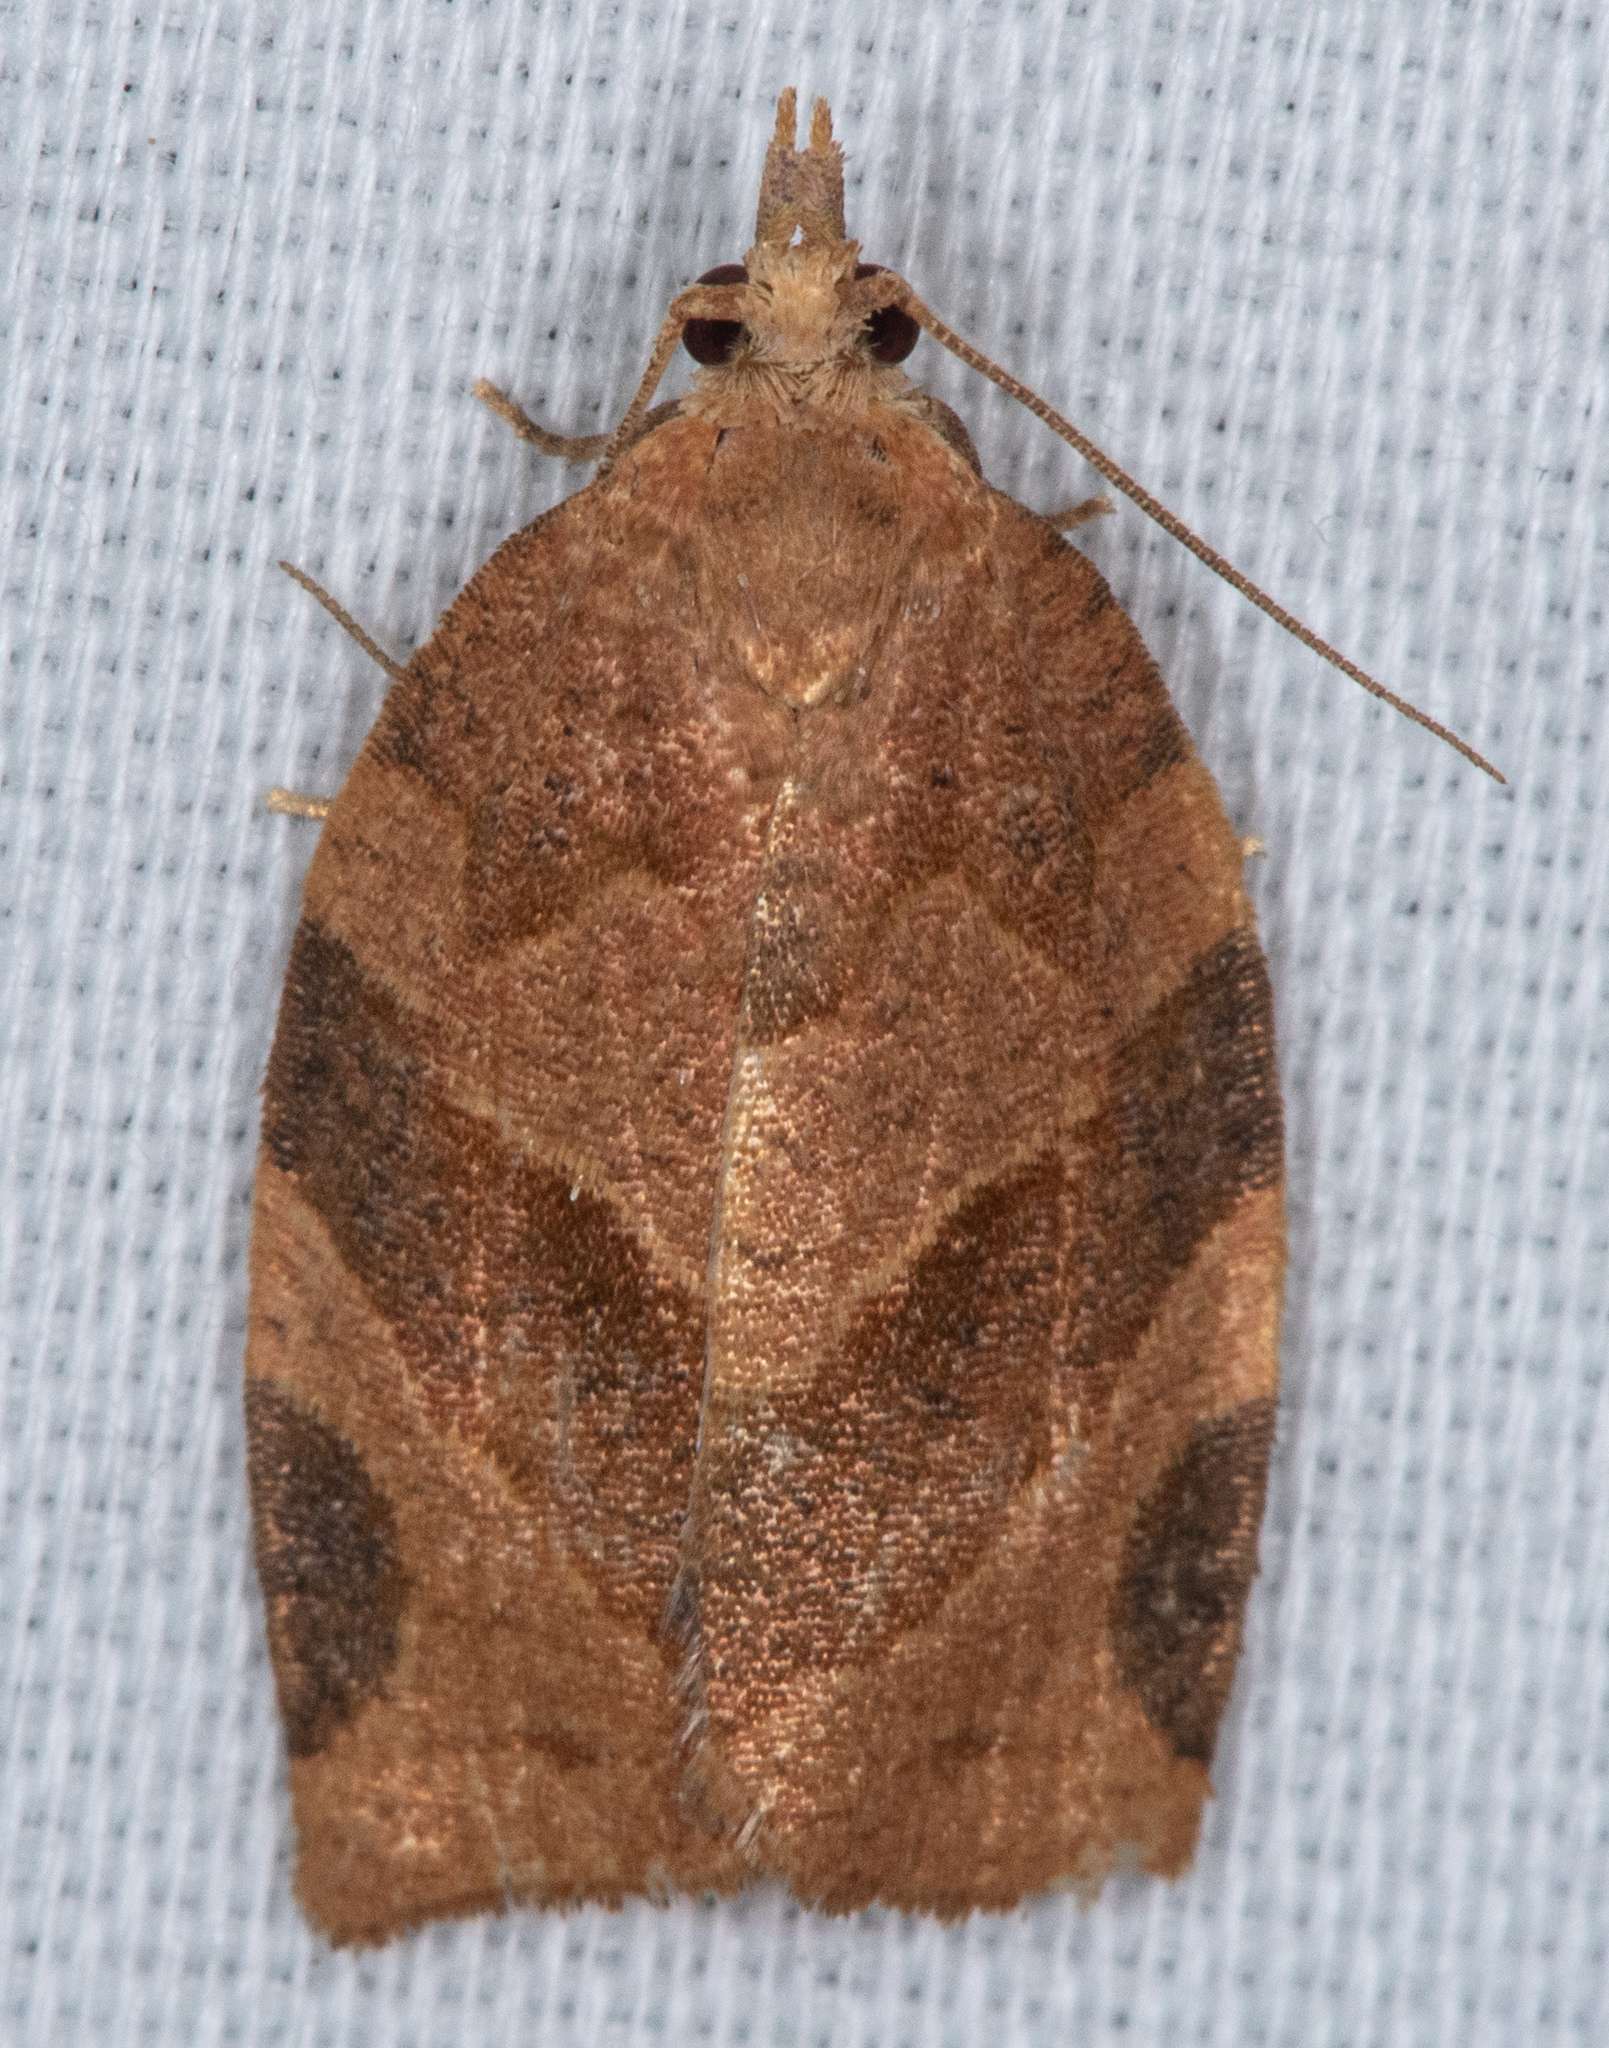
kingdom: Animalia
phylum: Arthropoda
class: Insecta
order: Lepidoptera
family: Tortricidae
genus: Pandemis
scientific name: Pandemis pyrusana
